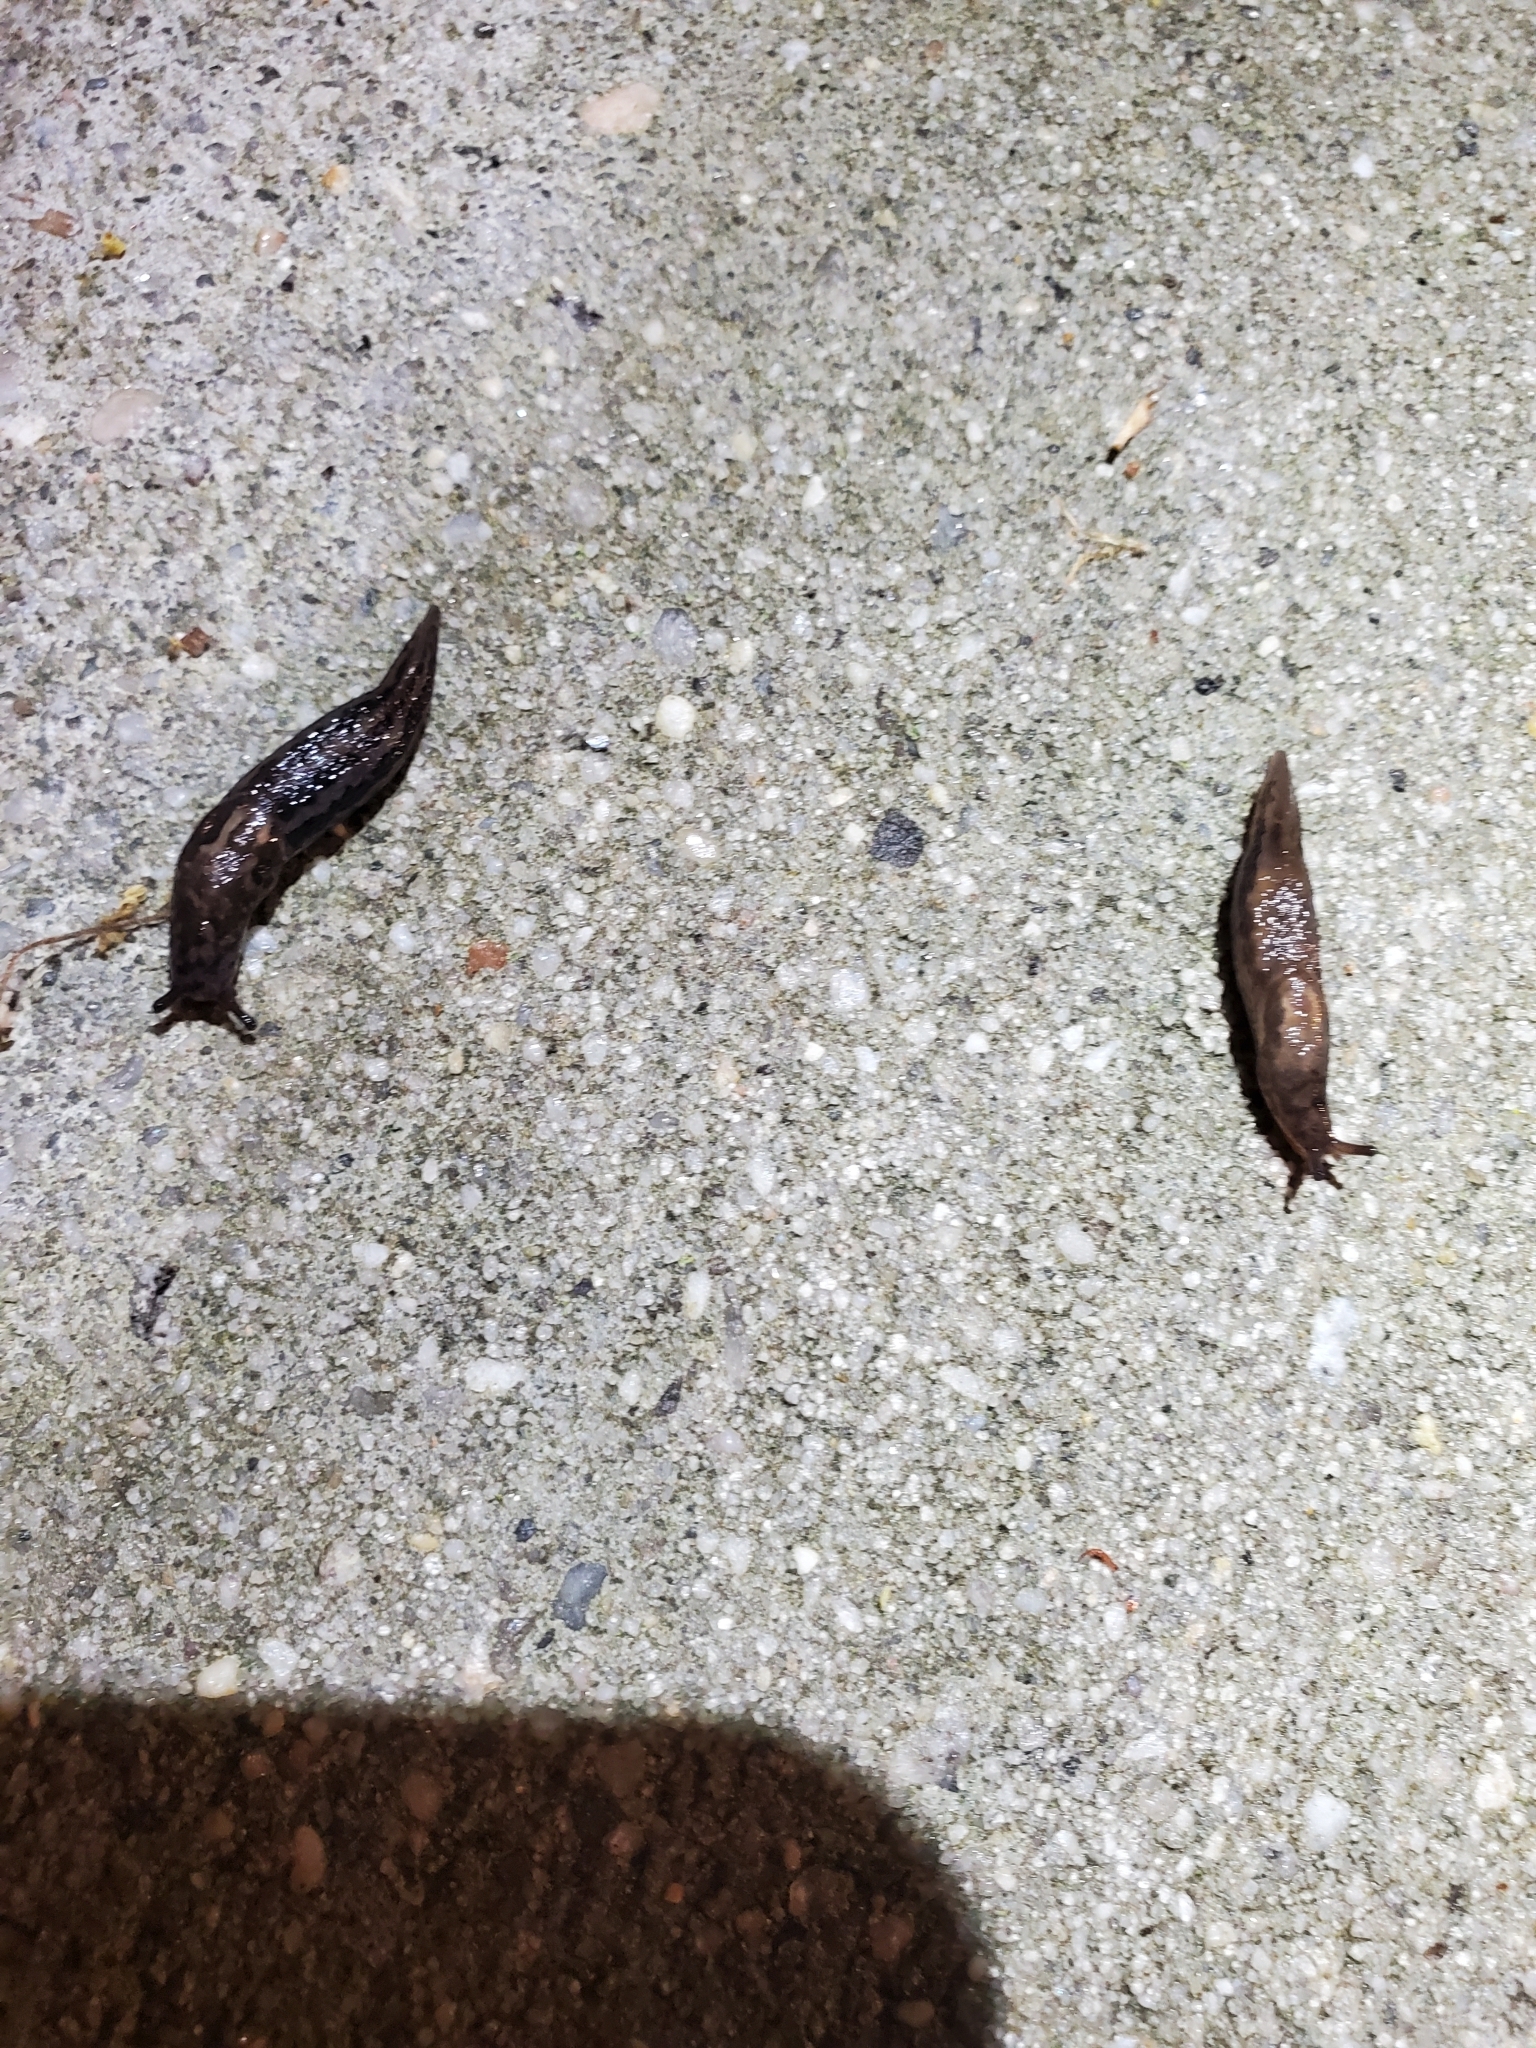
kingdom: Animalia
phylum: Mollusca
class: Gastropoda
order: Stylommatophora
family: Limacidae
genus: Limax
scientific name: Limax maximus
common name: Great grey slug
